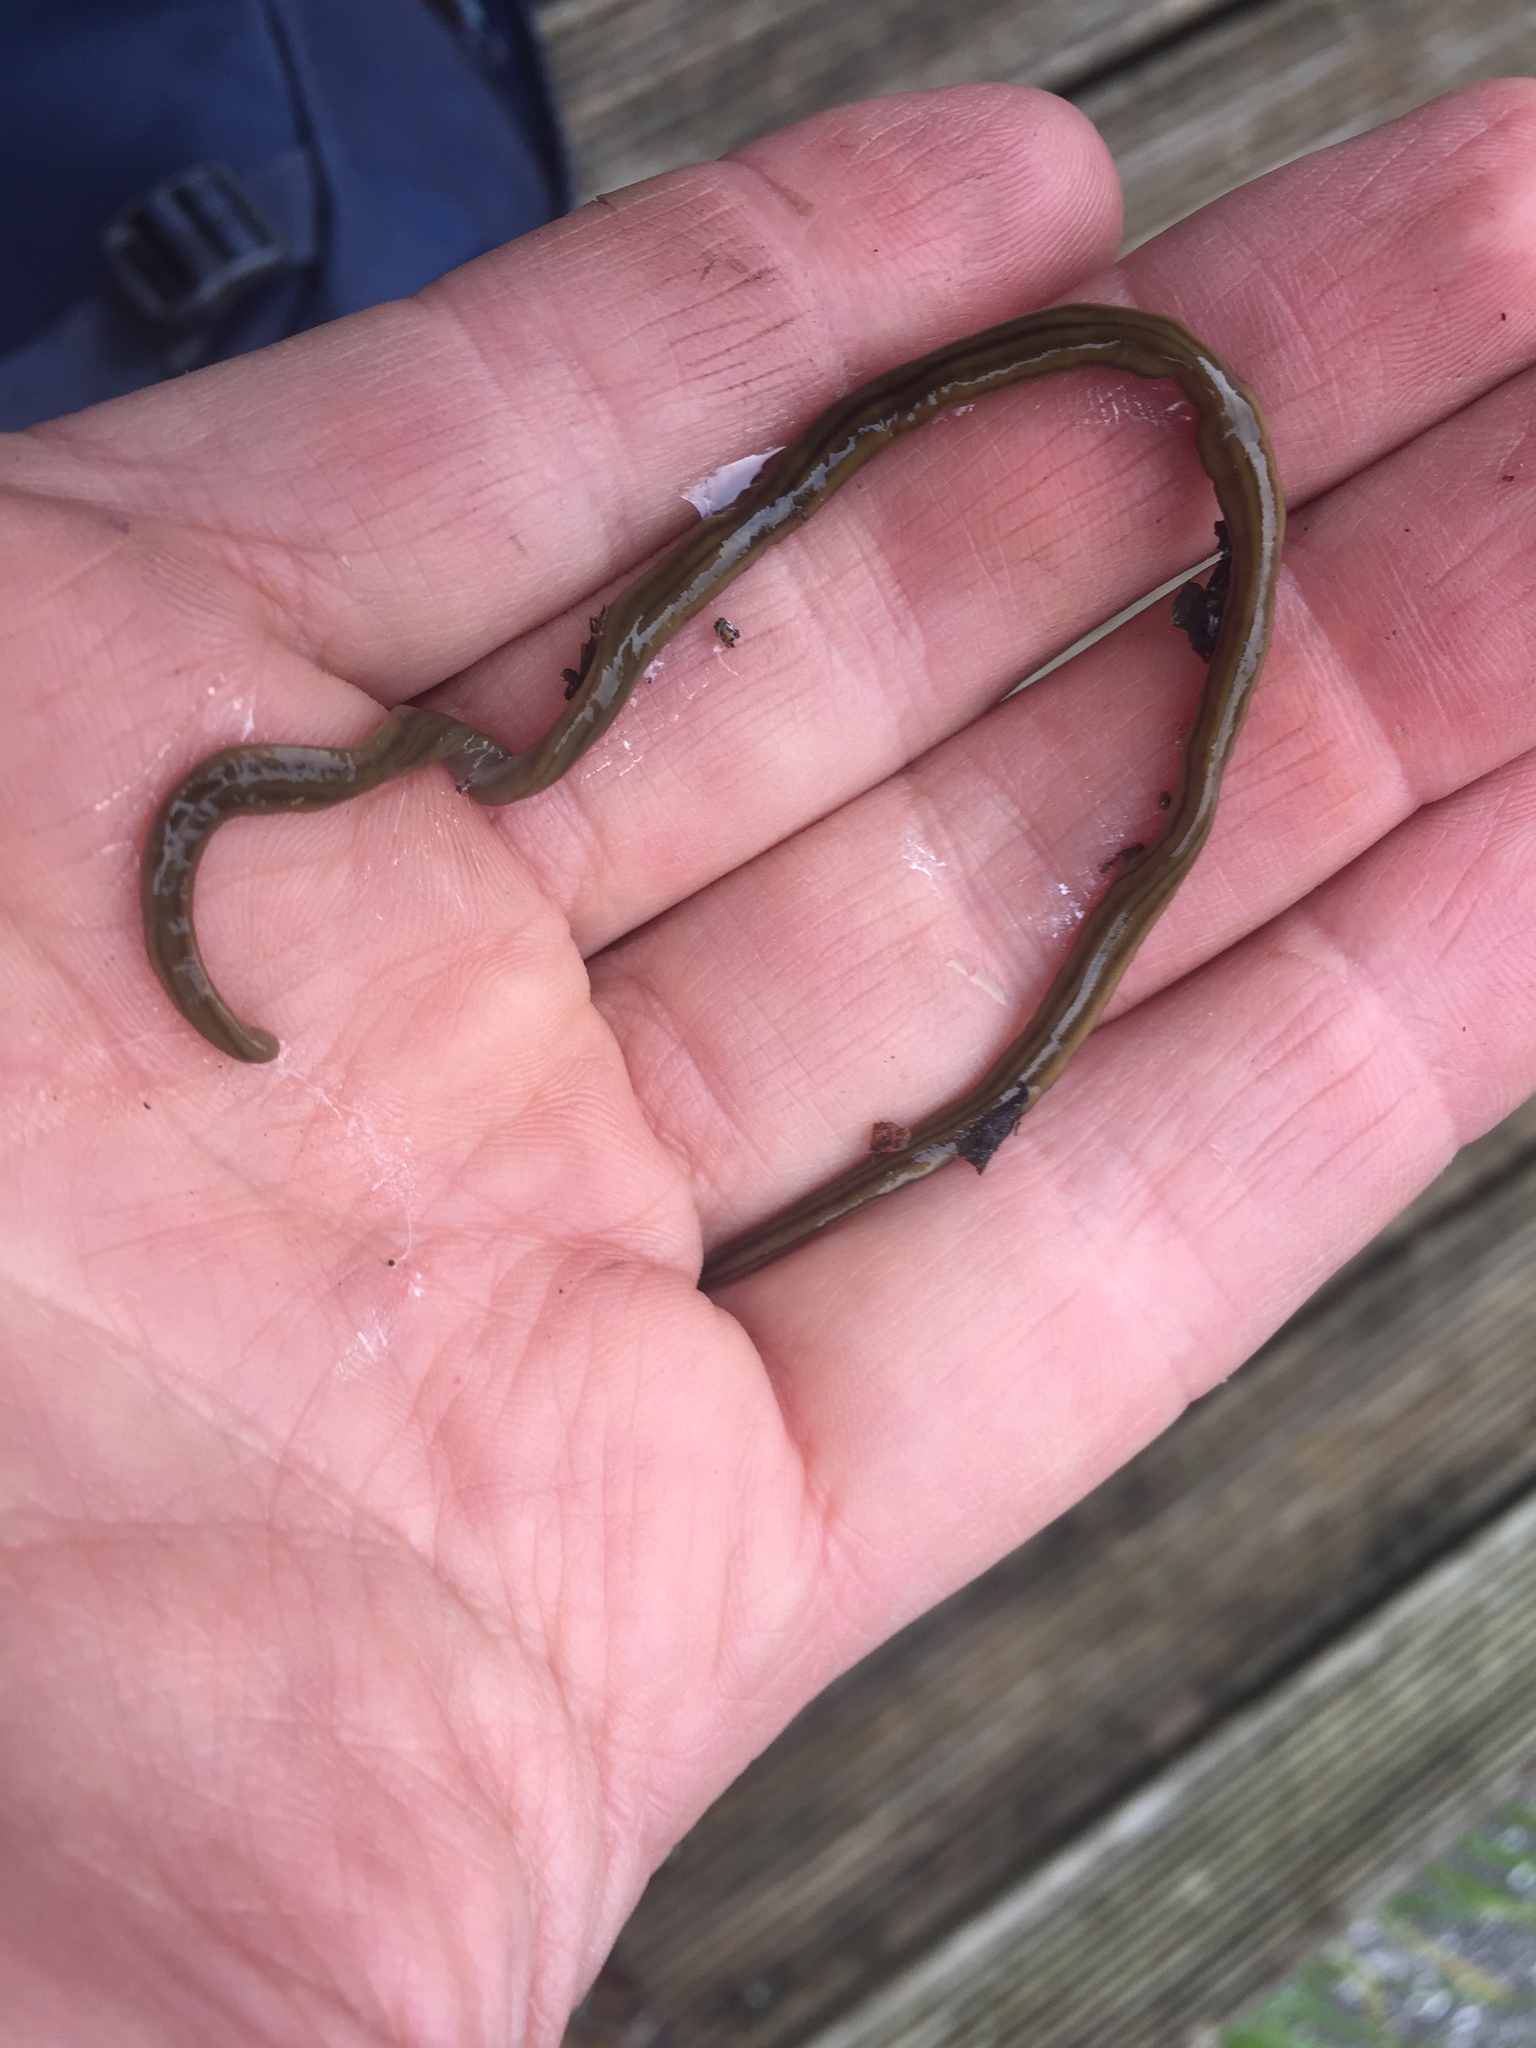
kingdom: Animalia
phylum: Platyhelminthes
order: Tricladida
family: Geoplanidae
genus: Bipalium
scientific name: Bipalium kewense
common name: Hammerhead flatworm
